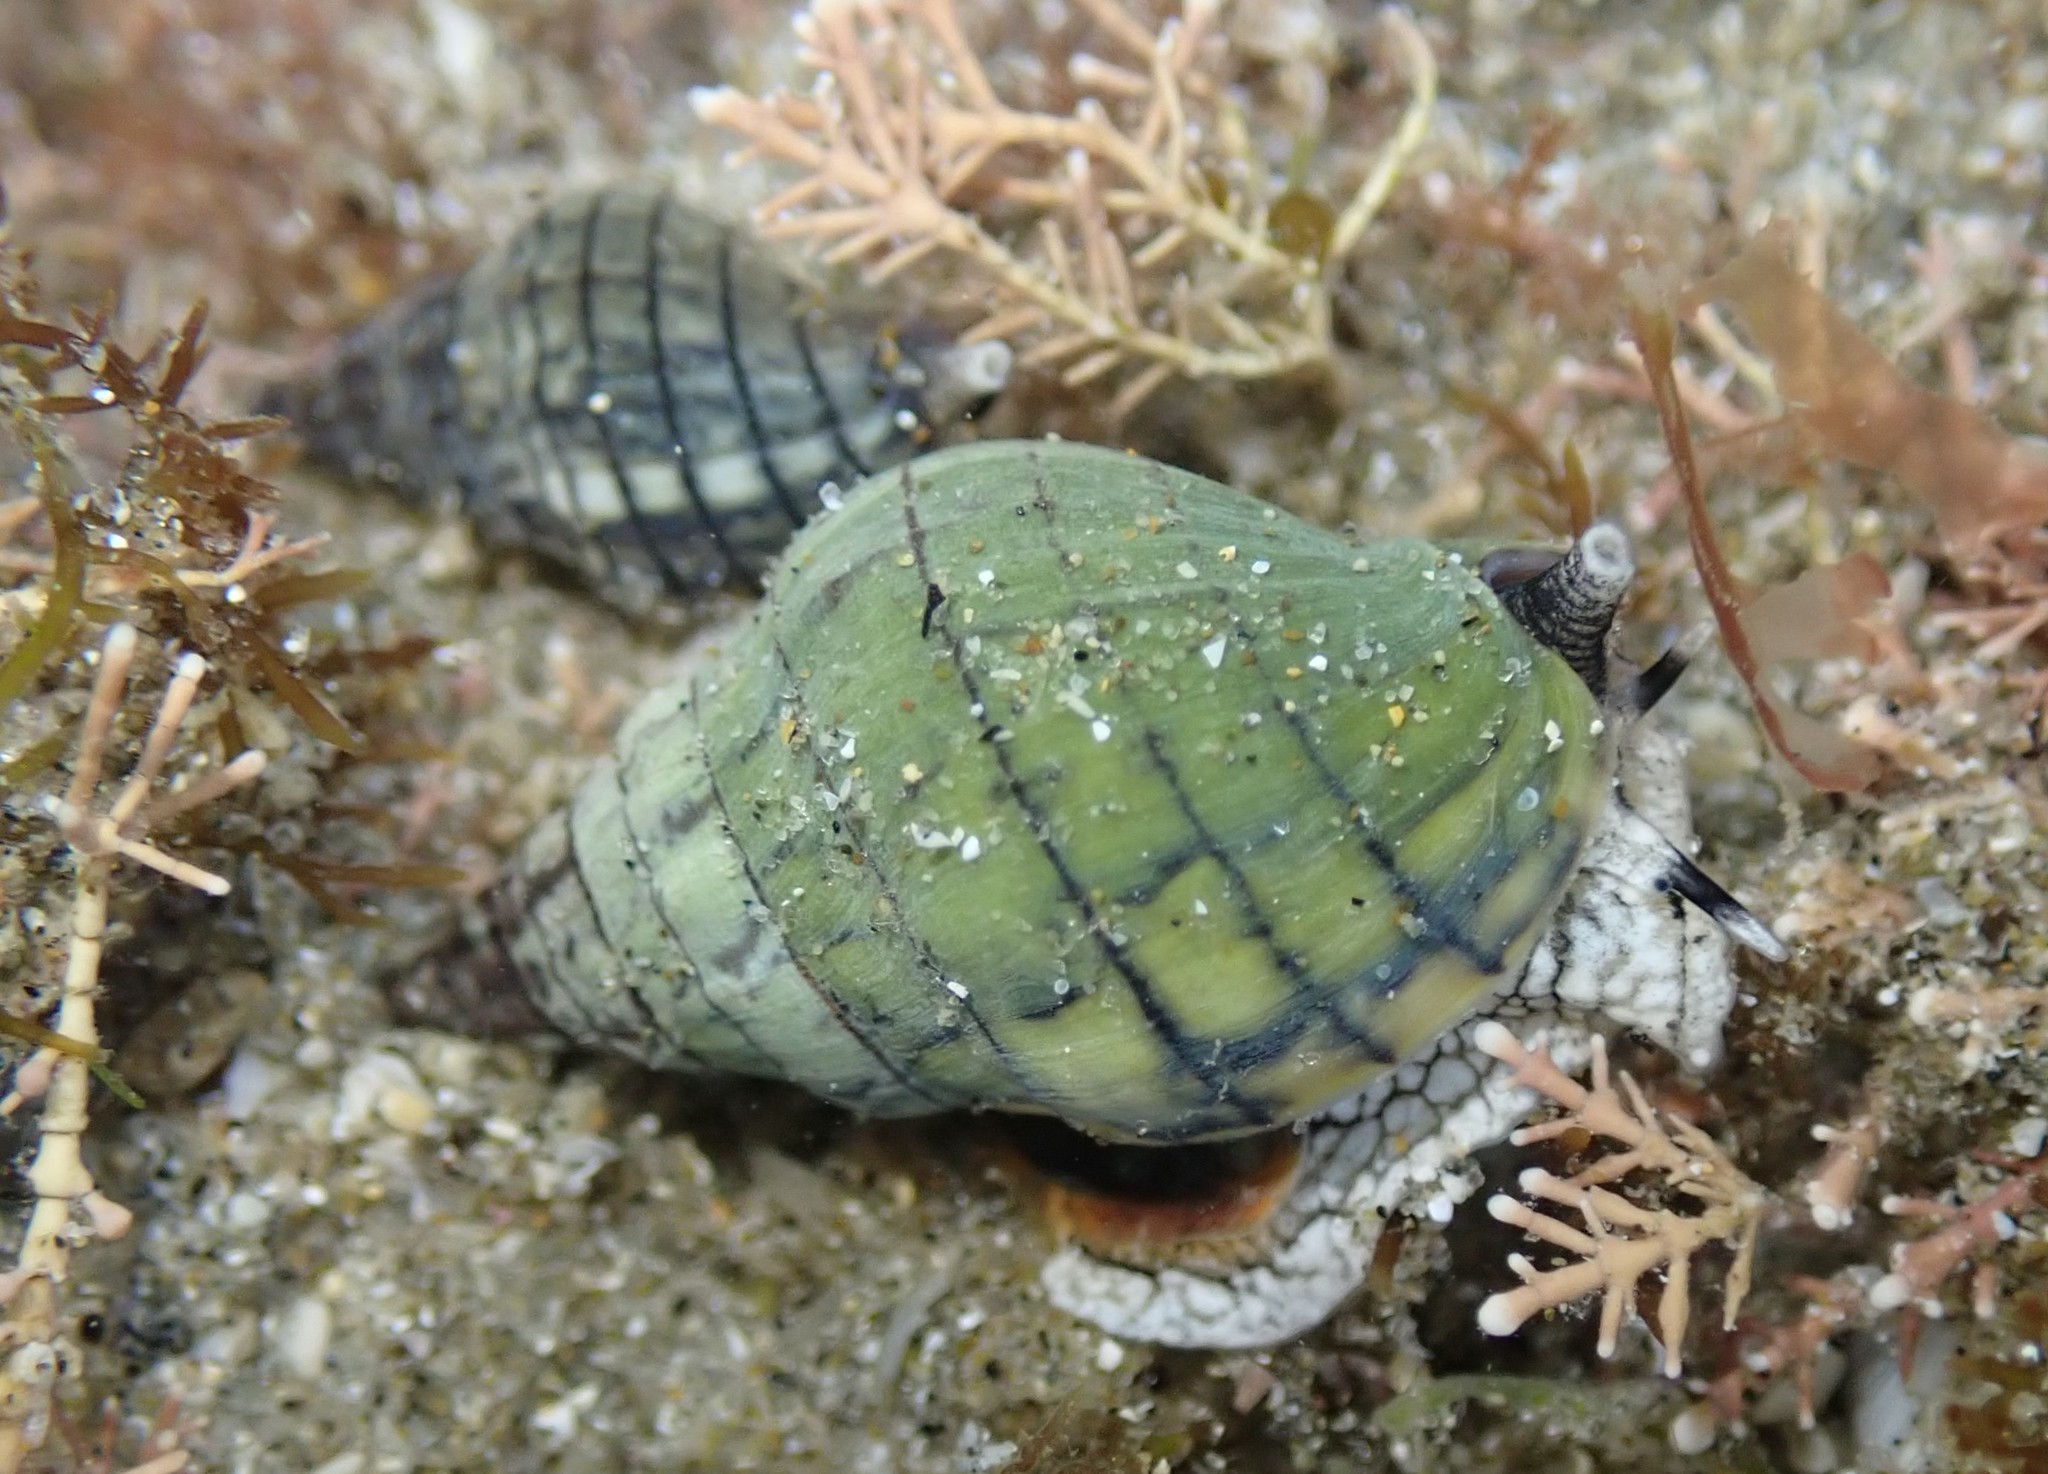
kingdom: Animalia
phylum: Mollusca
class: Gastropoda
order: Neogastropoda
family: Cominellidae
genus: Cominella
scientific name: Cominella virgata
